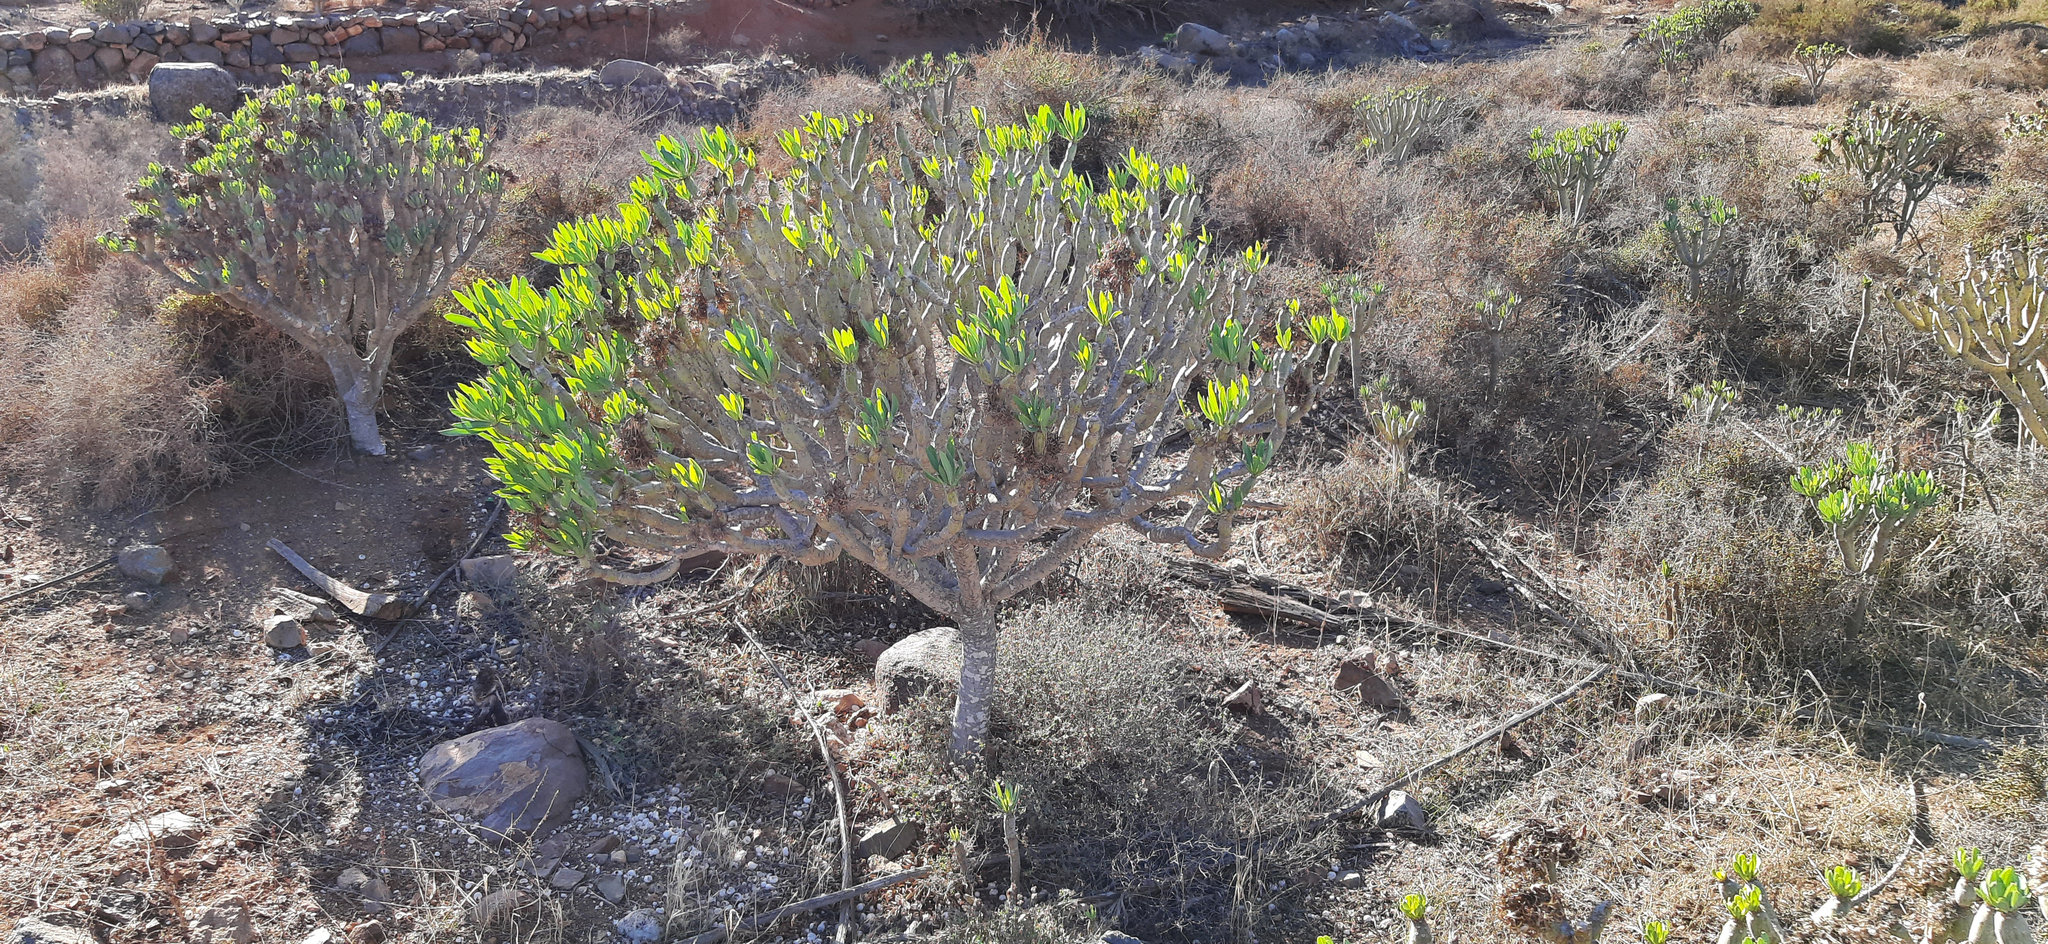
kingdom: Plantae
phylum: Tracheophyta
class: Magnoliopsida
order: Asterales
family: Asteraceae
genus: Kleinia
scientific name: Kleinia neriifolia
